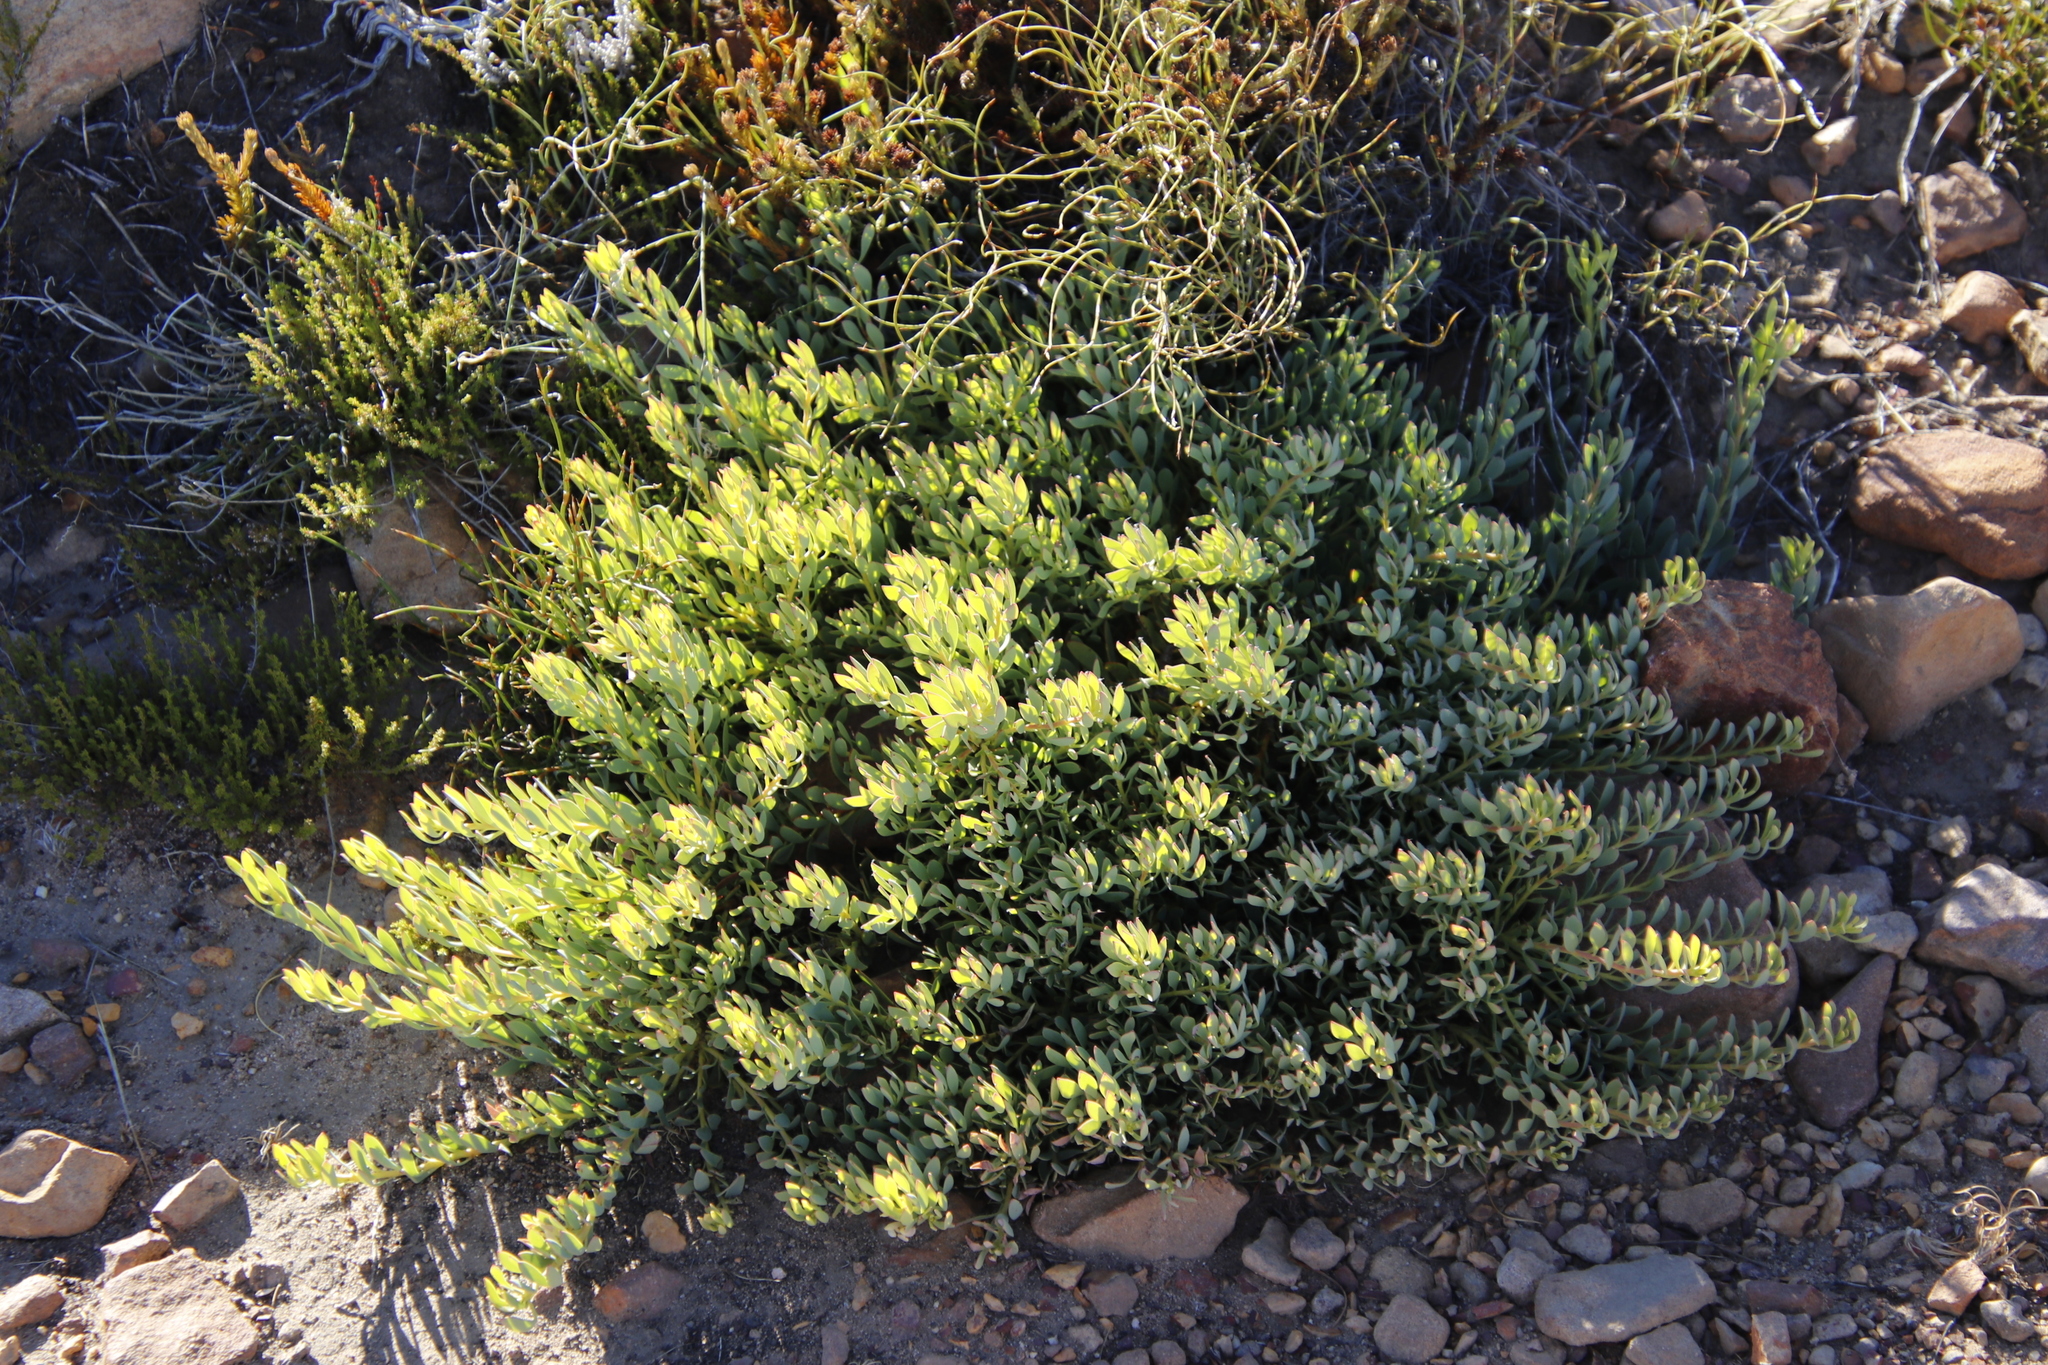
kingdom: Plantae
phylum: Tracheophyta
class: Magnoliopsida
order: Proteales
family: Proteaceae
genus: Leucadendron
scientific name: Leucadendron glaberrimum
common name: Common oily conebush
